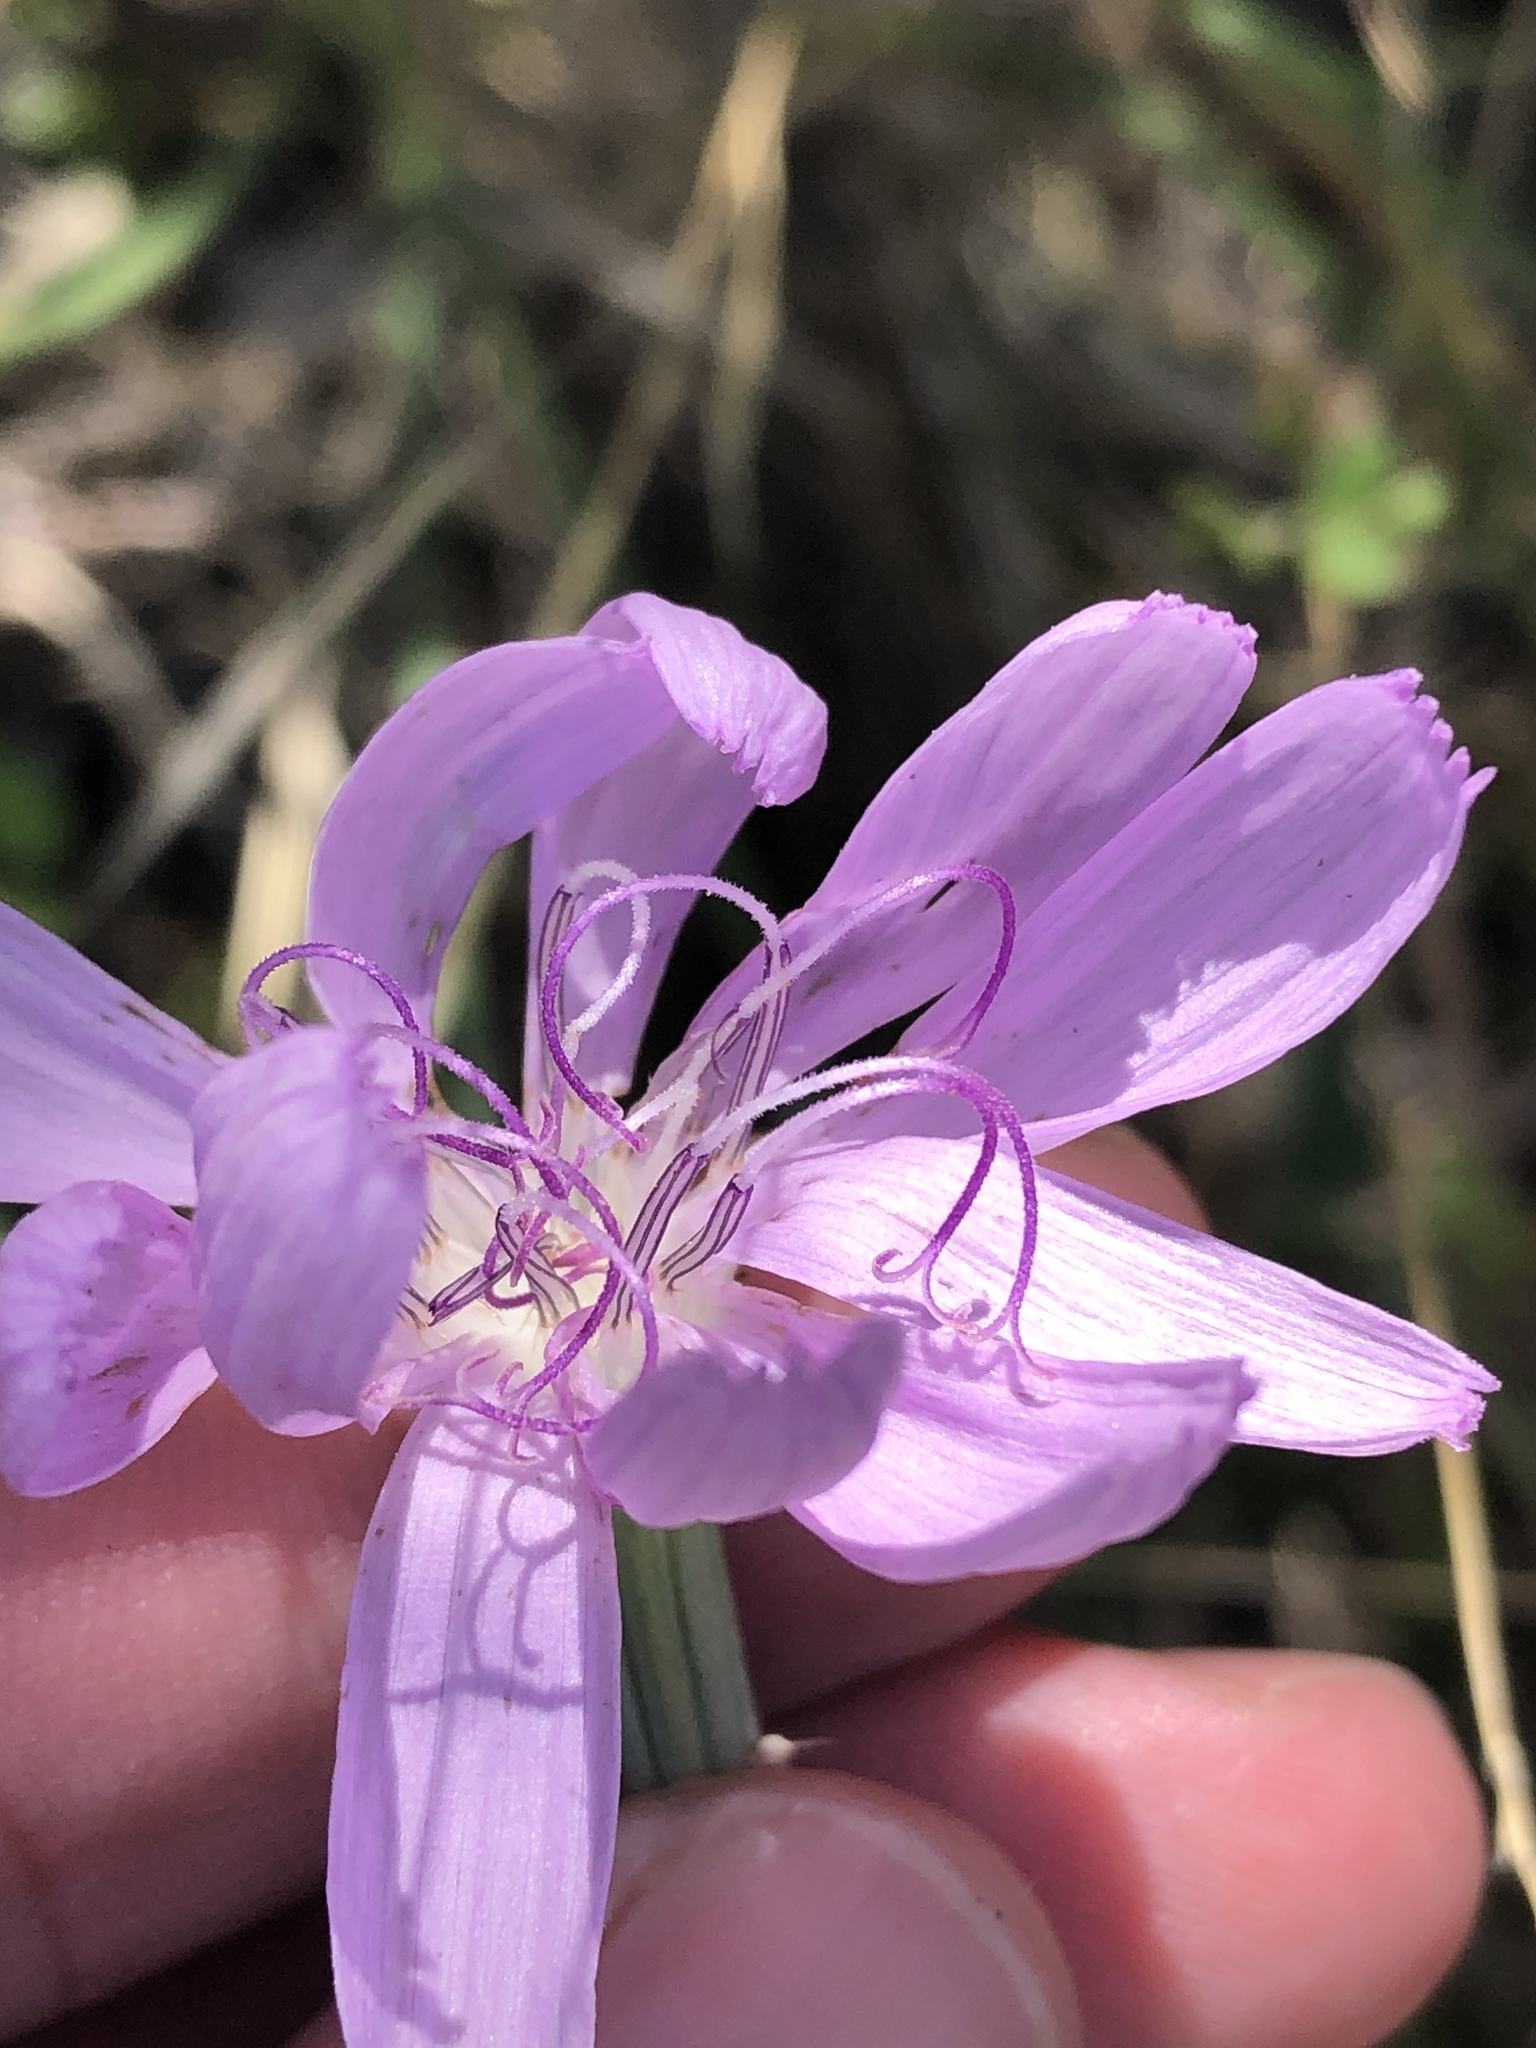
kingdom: Plantae
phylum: Tracheophyta
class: Magnoliopsida
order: Asterales
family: Asteraceae
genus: Lygodesmia
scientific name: Lygodesmia texana
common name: Texas skeleton-plant
